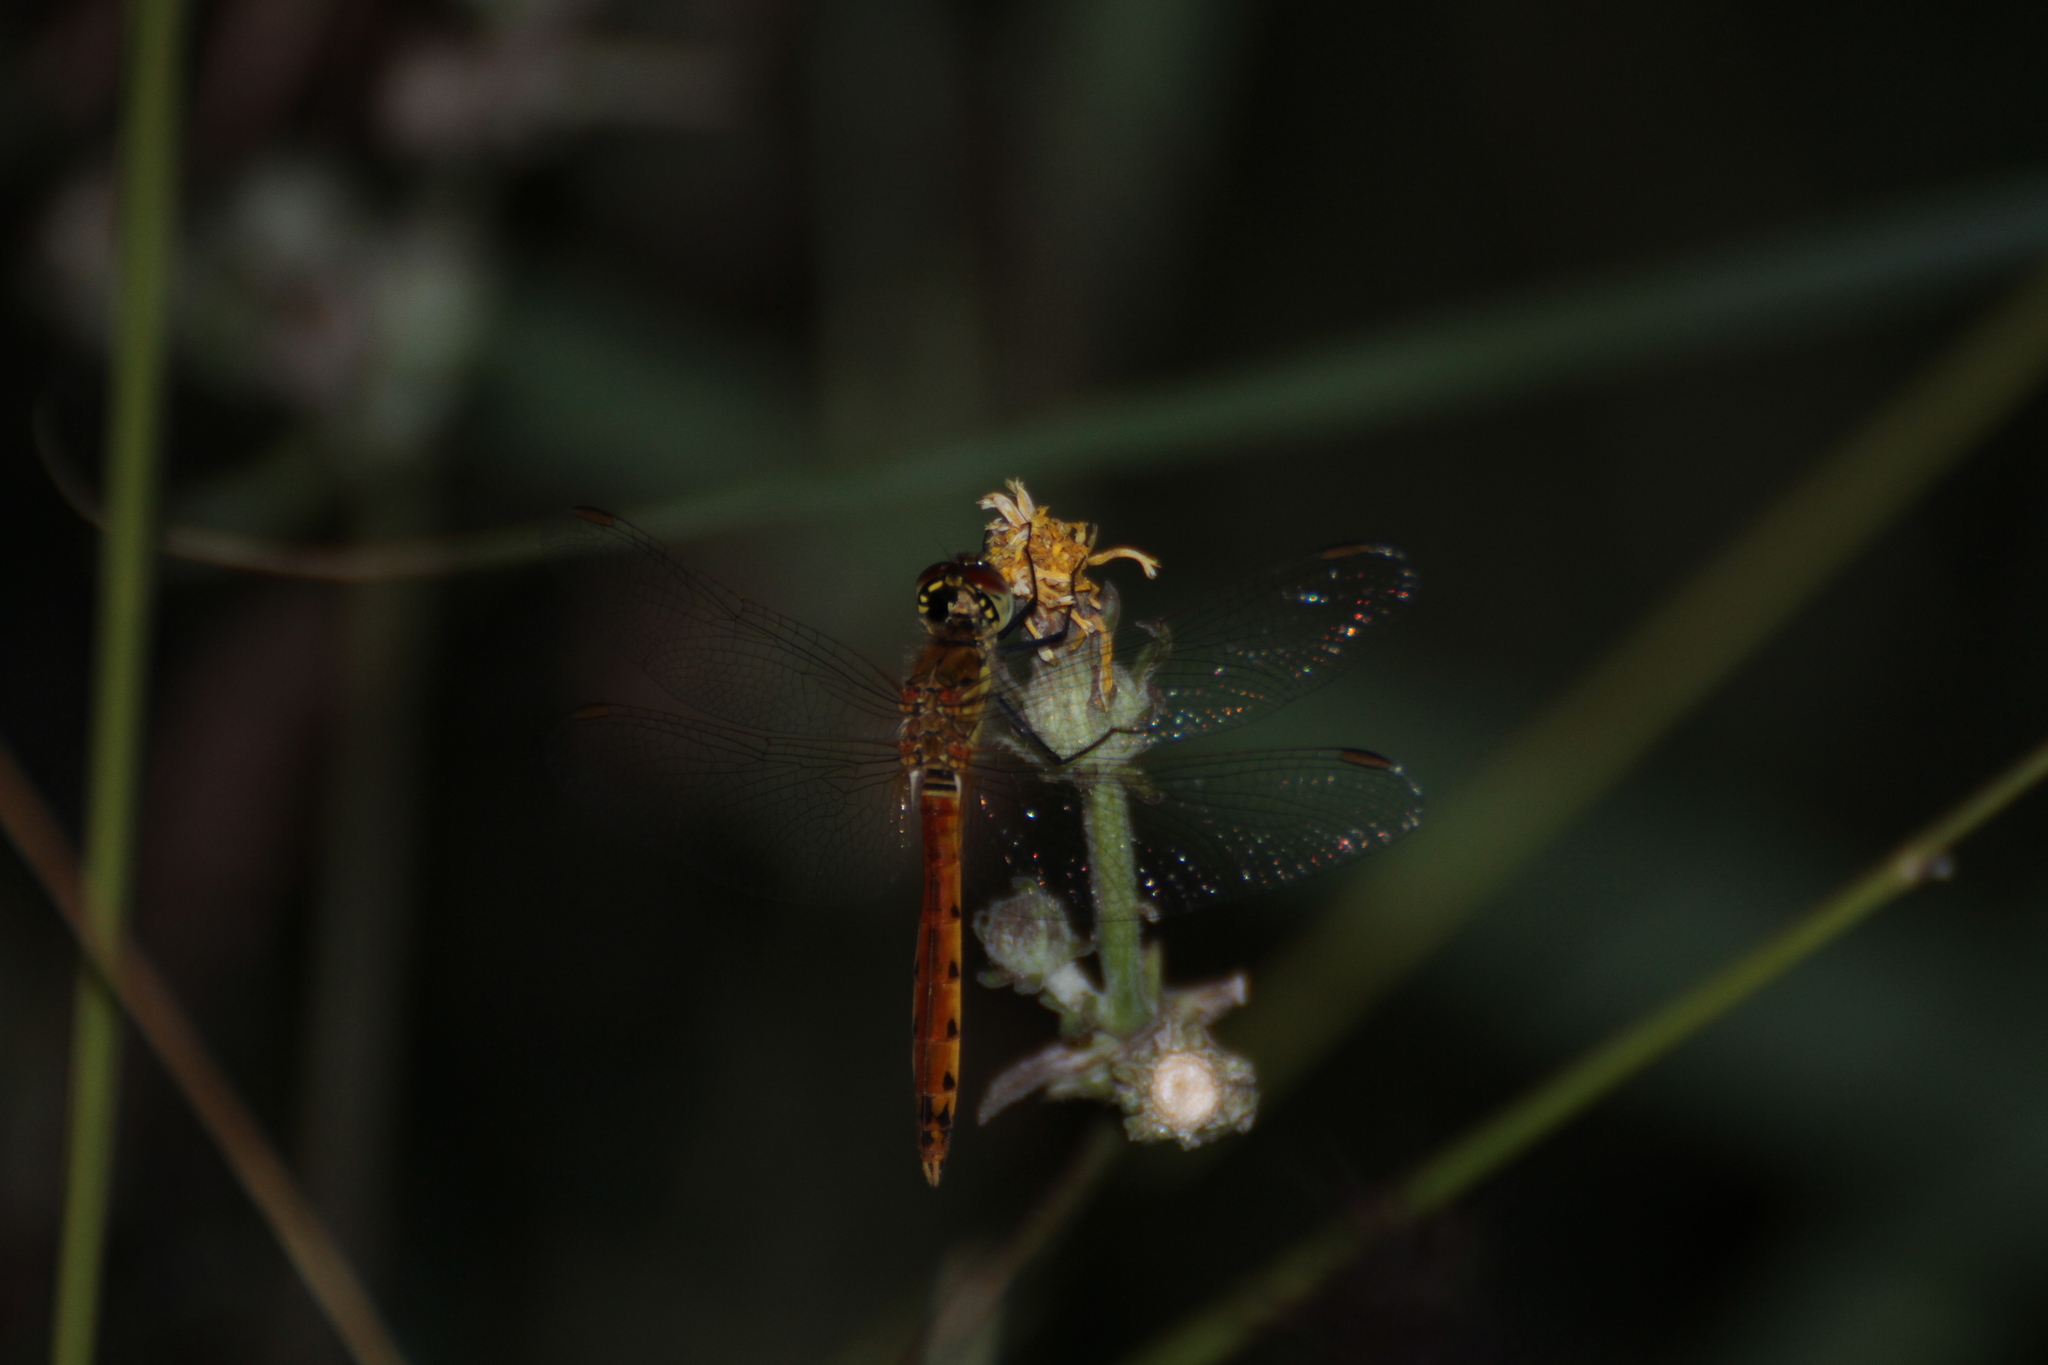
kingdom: Animalia
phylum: Arthropoda
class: Insecta
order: Odonata
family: Libellulidae
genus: Sympetrum
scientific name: Sympetrum depressiusculum
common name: Spotted darter
